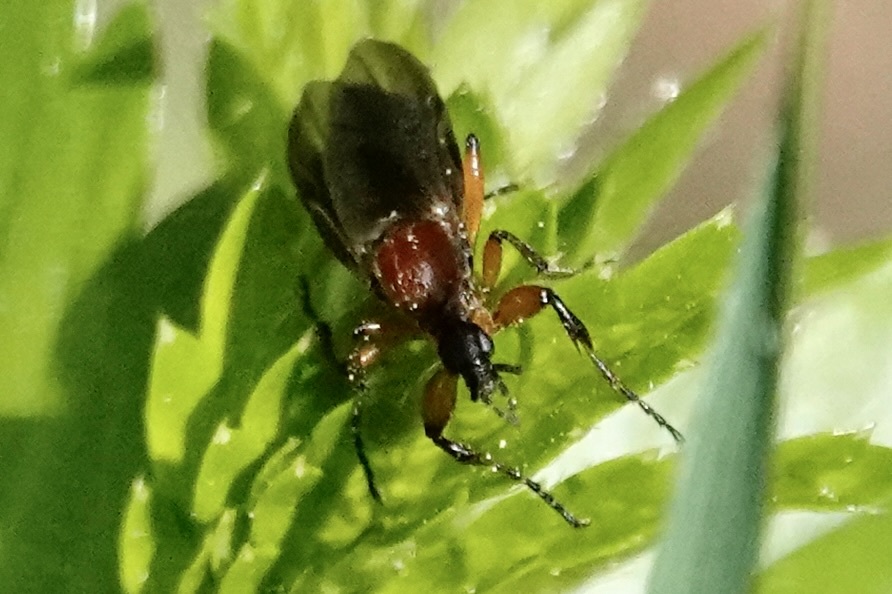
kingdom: Animalia
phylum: Arthropoda
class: Insecta
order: Diptera
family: Bibionidae
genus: Bibio
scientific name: Bibio articulatus
